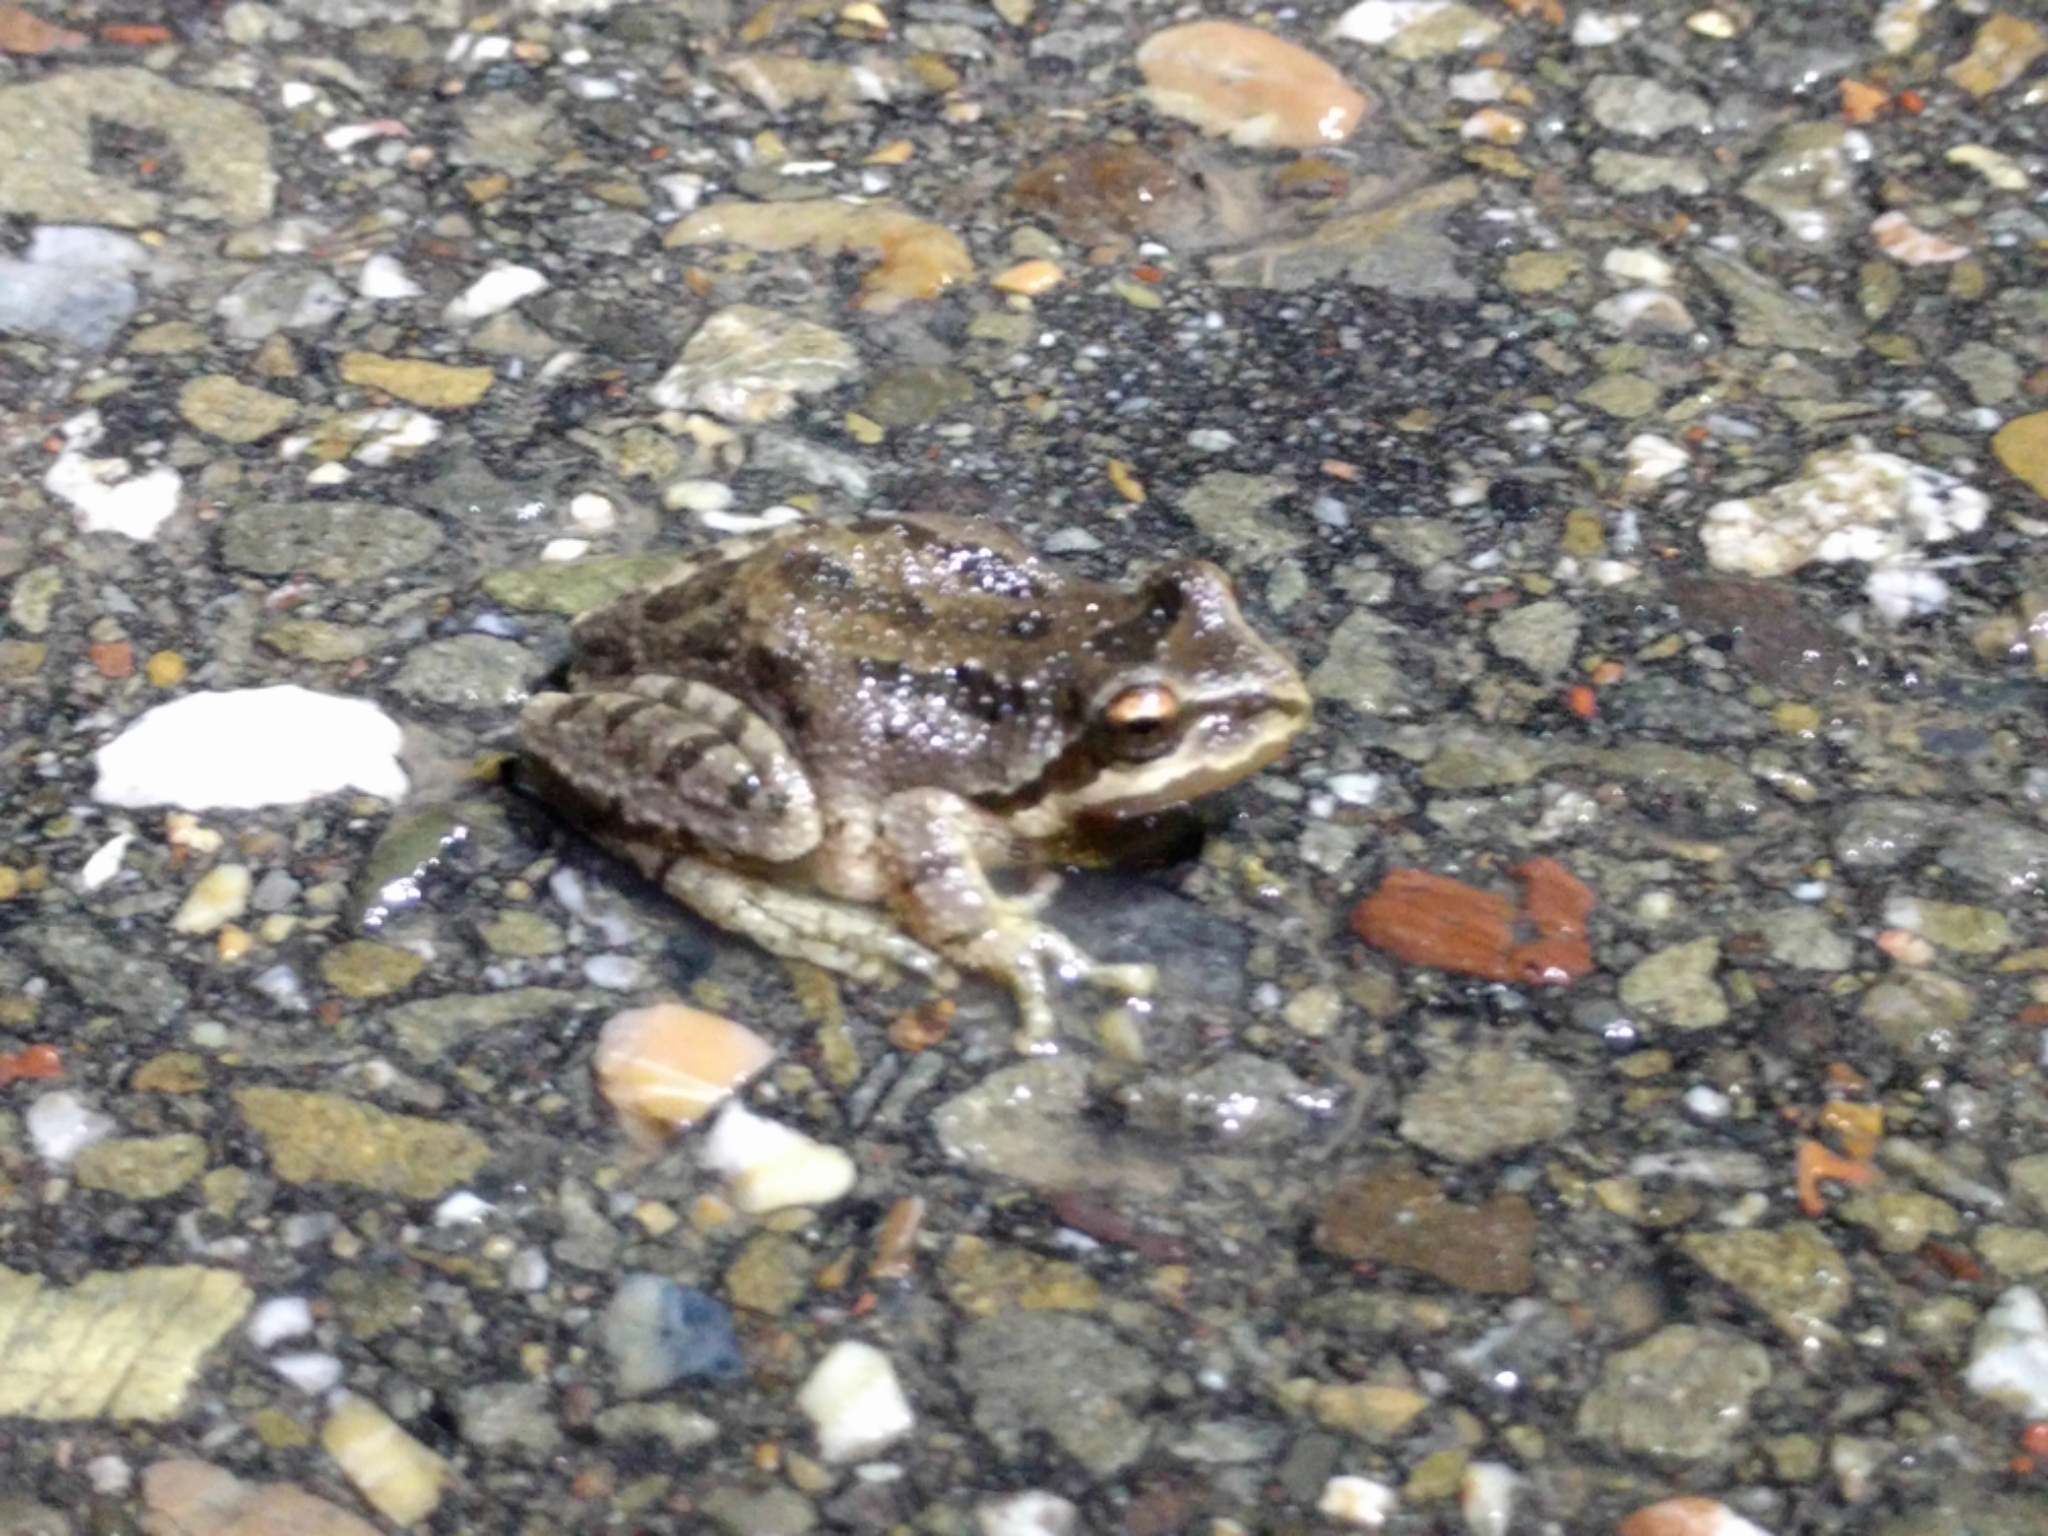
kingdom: Animalia
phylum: Chordata
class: Amphibia
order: Anura
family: Hylidae
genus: Pseudacris
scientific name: Pseudacris regilla
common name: Pacific chorus frog
